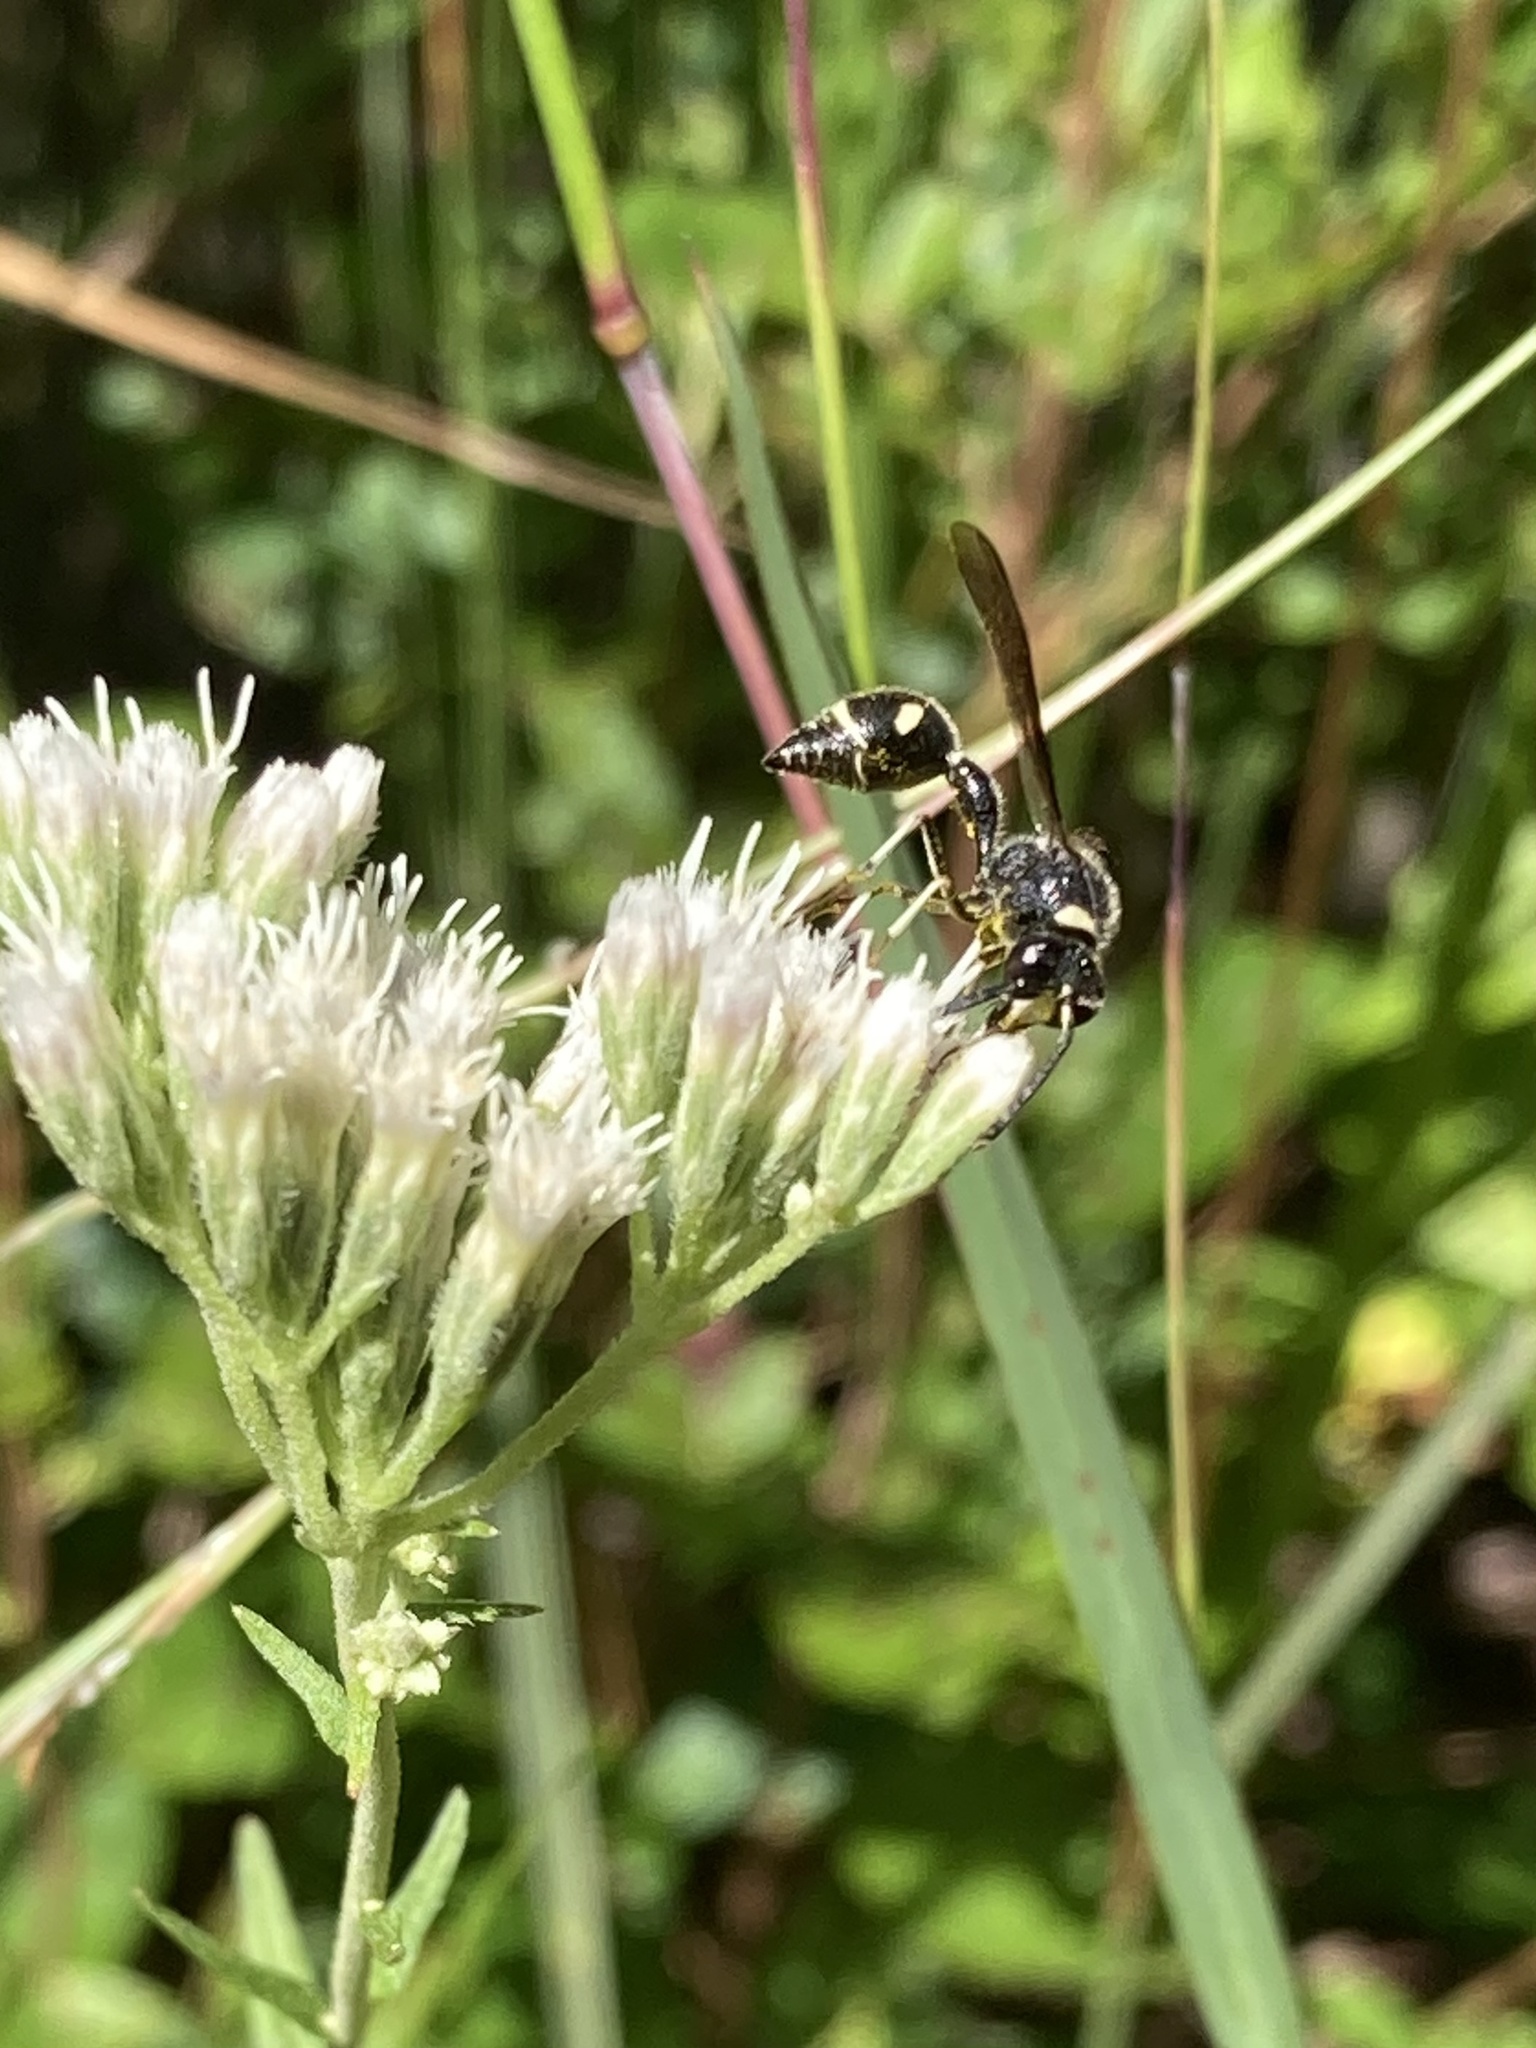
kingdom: Animalia
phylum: Arthropoda
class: Insecta
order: Hymenoptera
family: Vespidae
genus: Eumenes
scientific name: Eumenes fraternus
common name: Fraternal potter wasp
